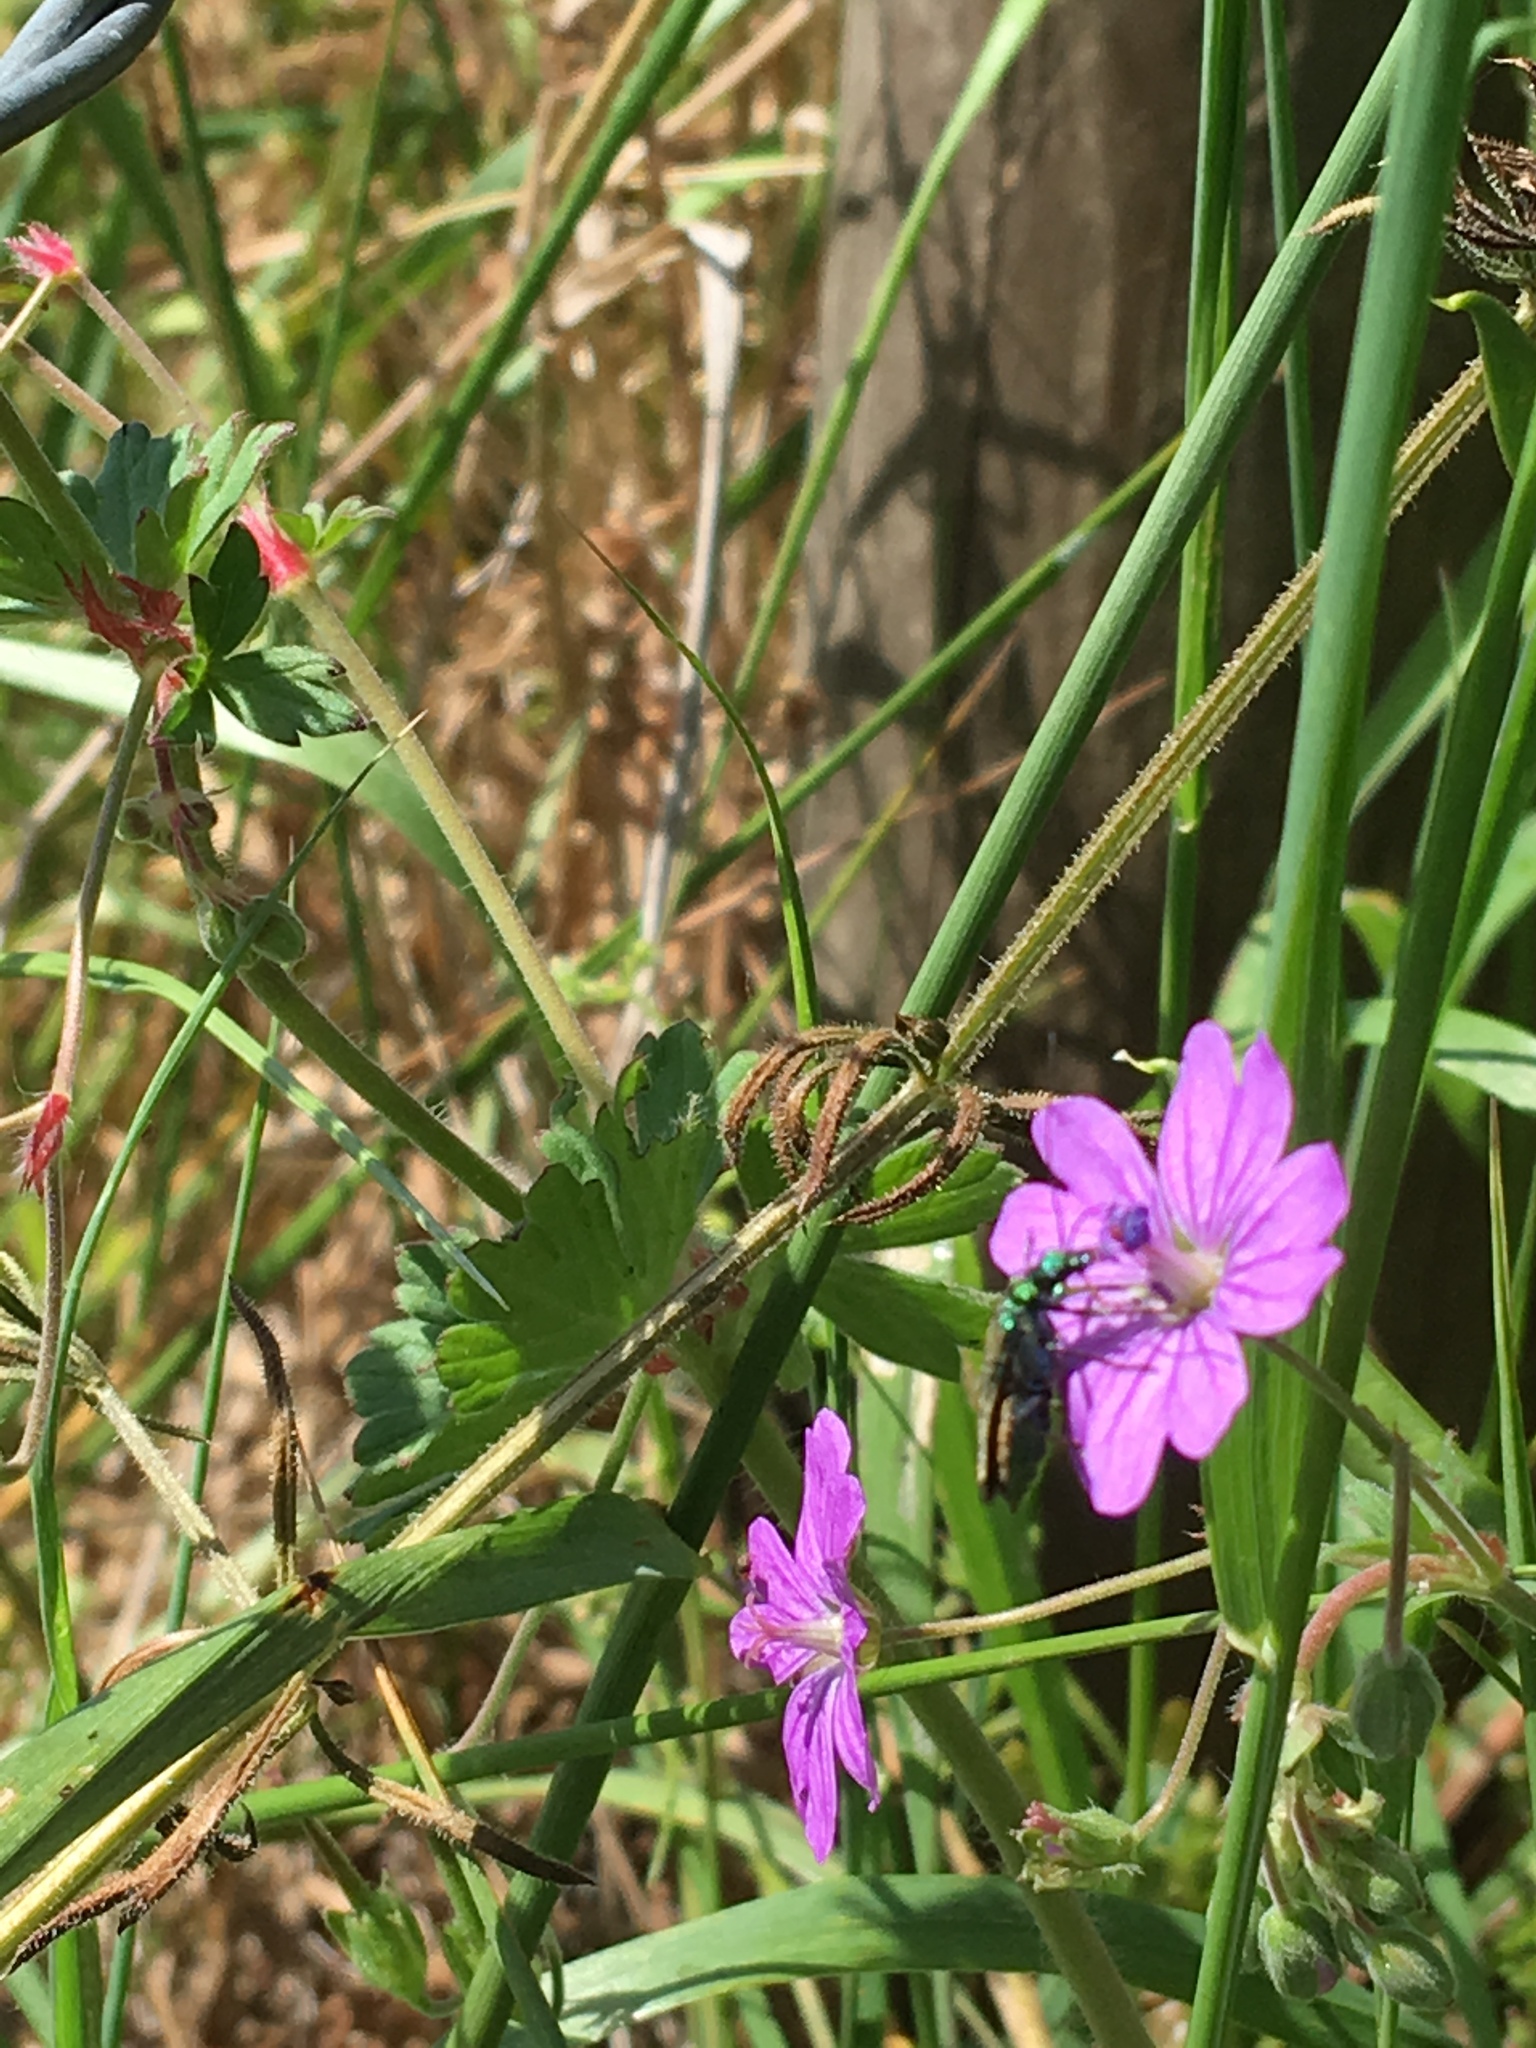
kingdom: Animalia
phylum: Arthropoda
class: Insecta
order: Coleoptera
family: Oedemeridae
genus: Oedemera
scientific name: Oedemera nobilis
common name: Swollen-thighed beetle
